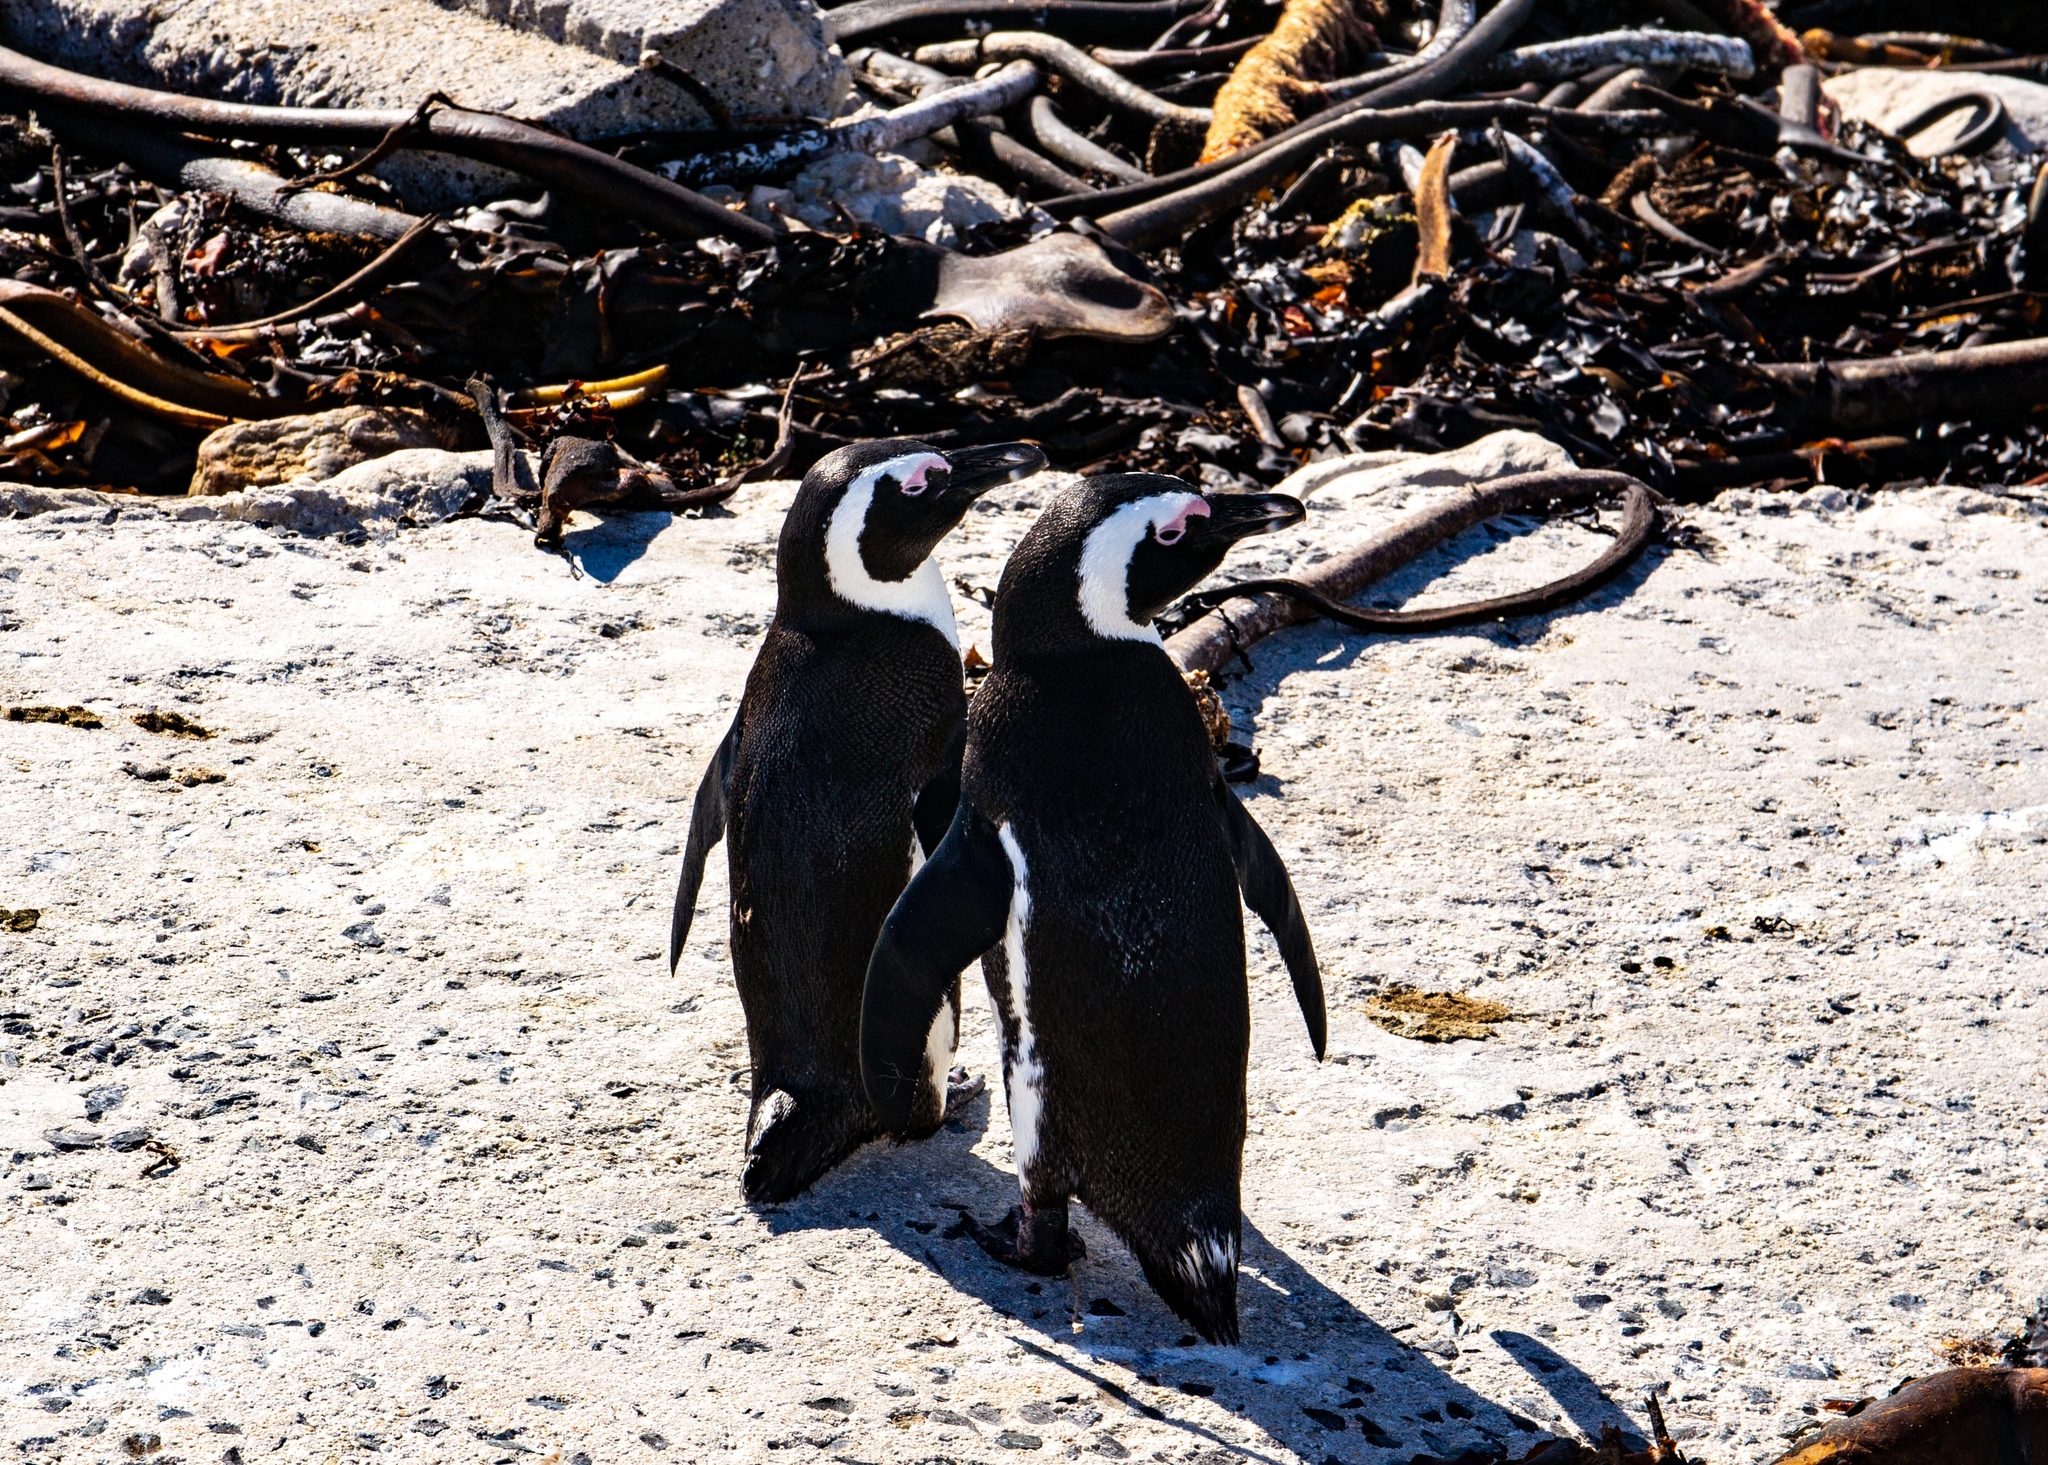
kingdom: Animalia
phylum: Chordata
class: Aves
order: Sphenisciformes
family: Spheniscidae
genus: Spheniscus
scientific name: Spheniscus demersus
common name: African penguin
